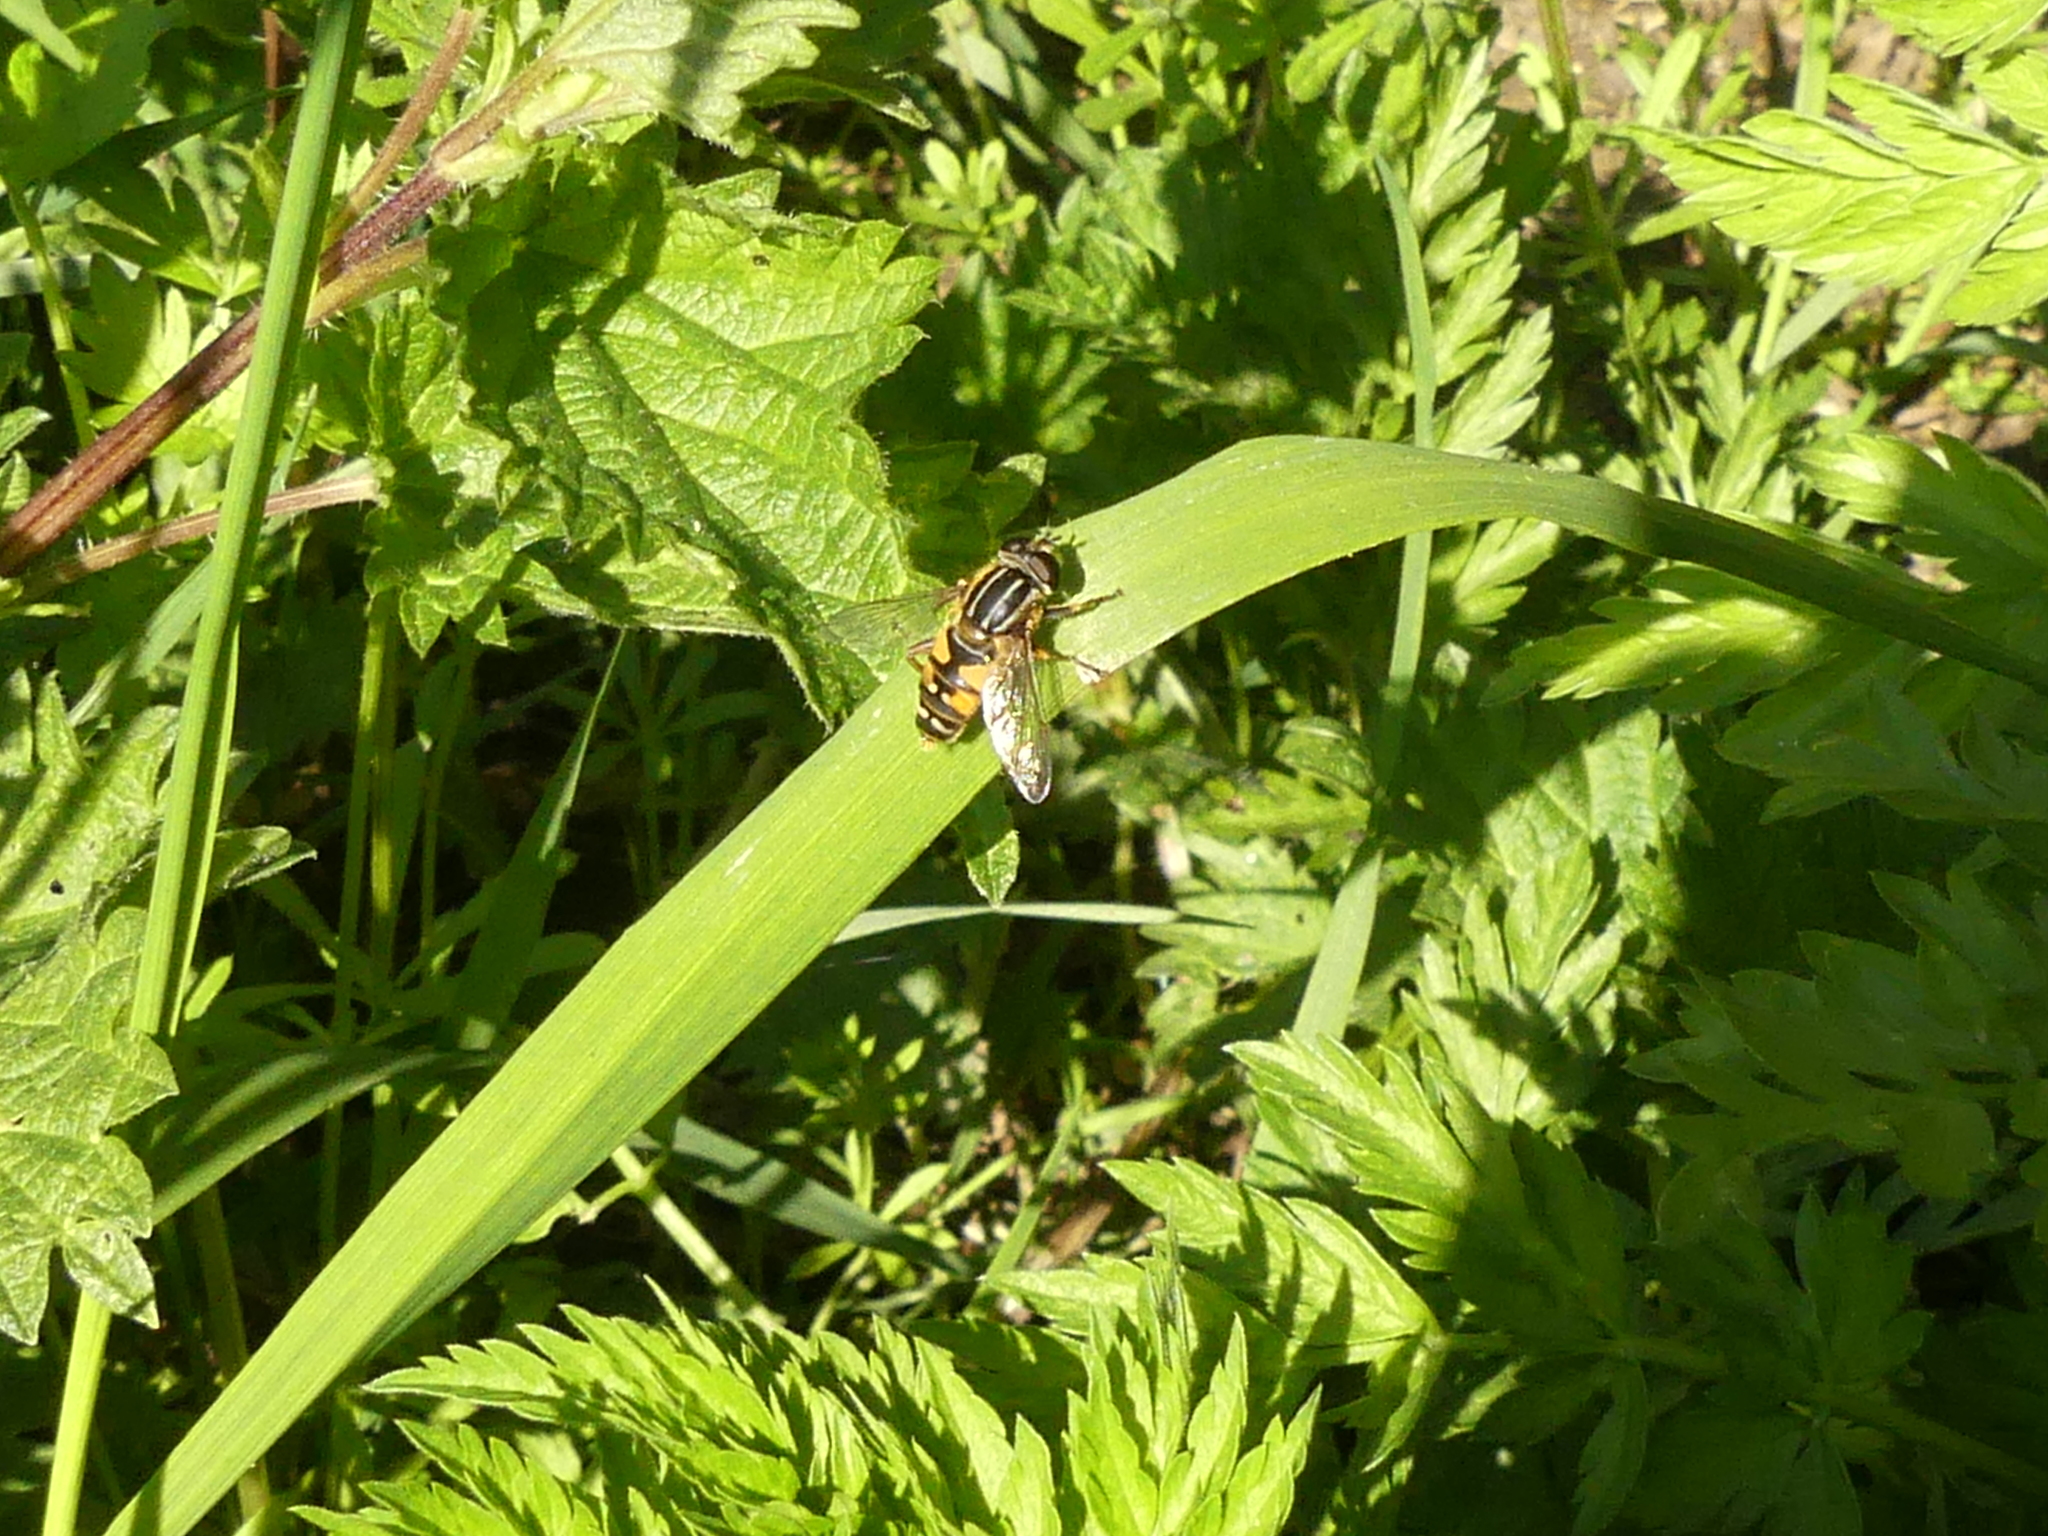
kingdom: Animalia
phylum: Arthropoda
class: Insecta
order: Diptera
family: Syrphidae
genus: Helophilus
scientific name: Helophilus pendulus
